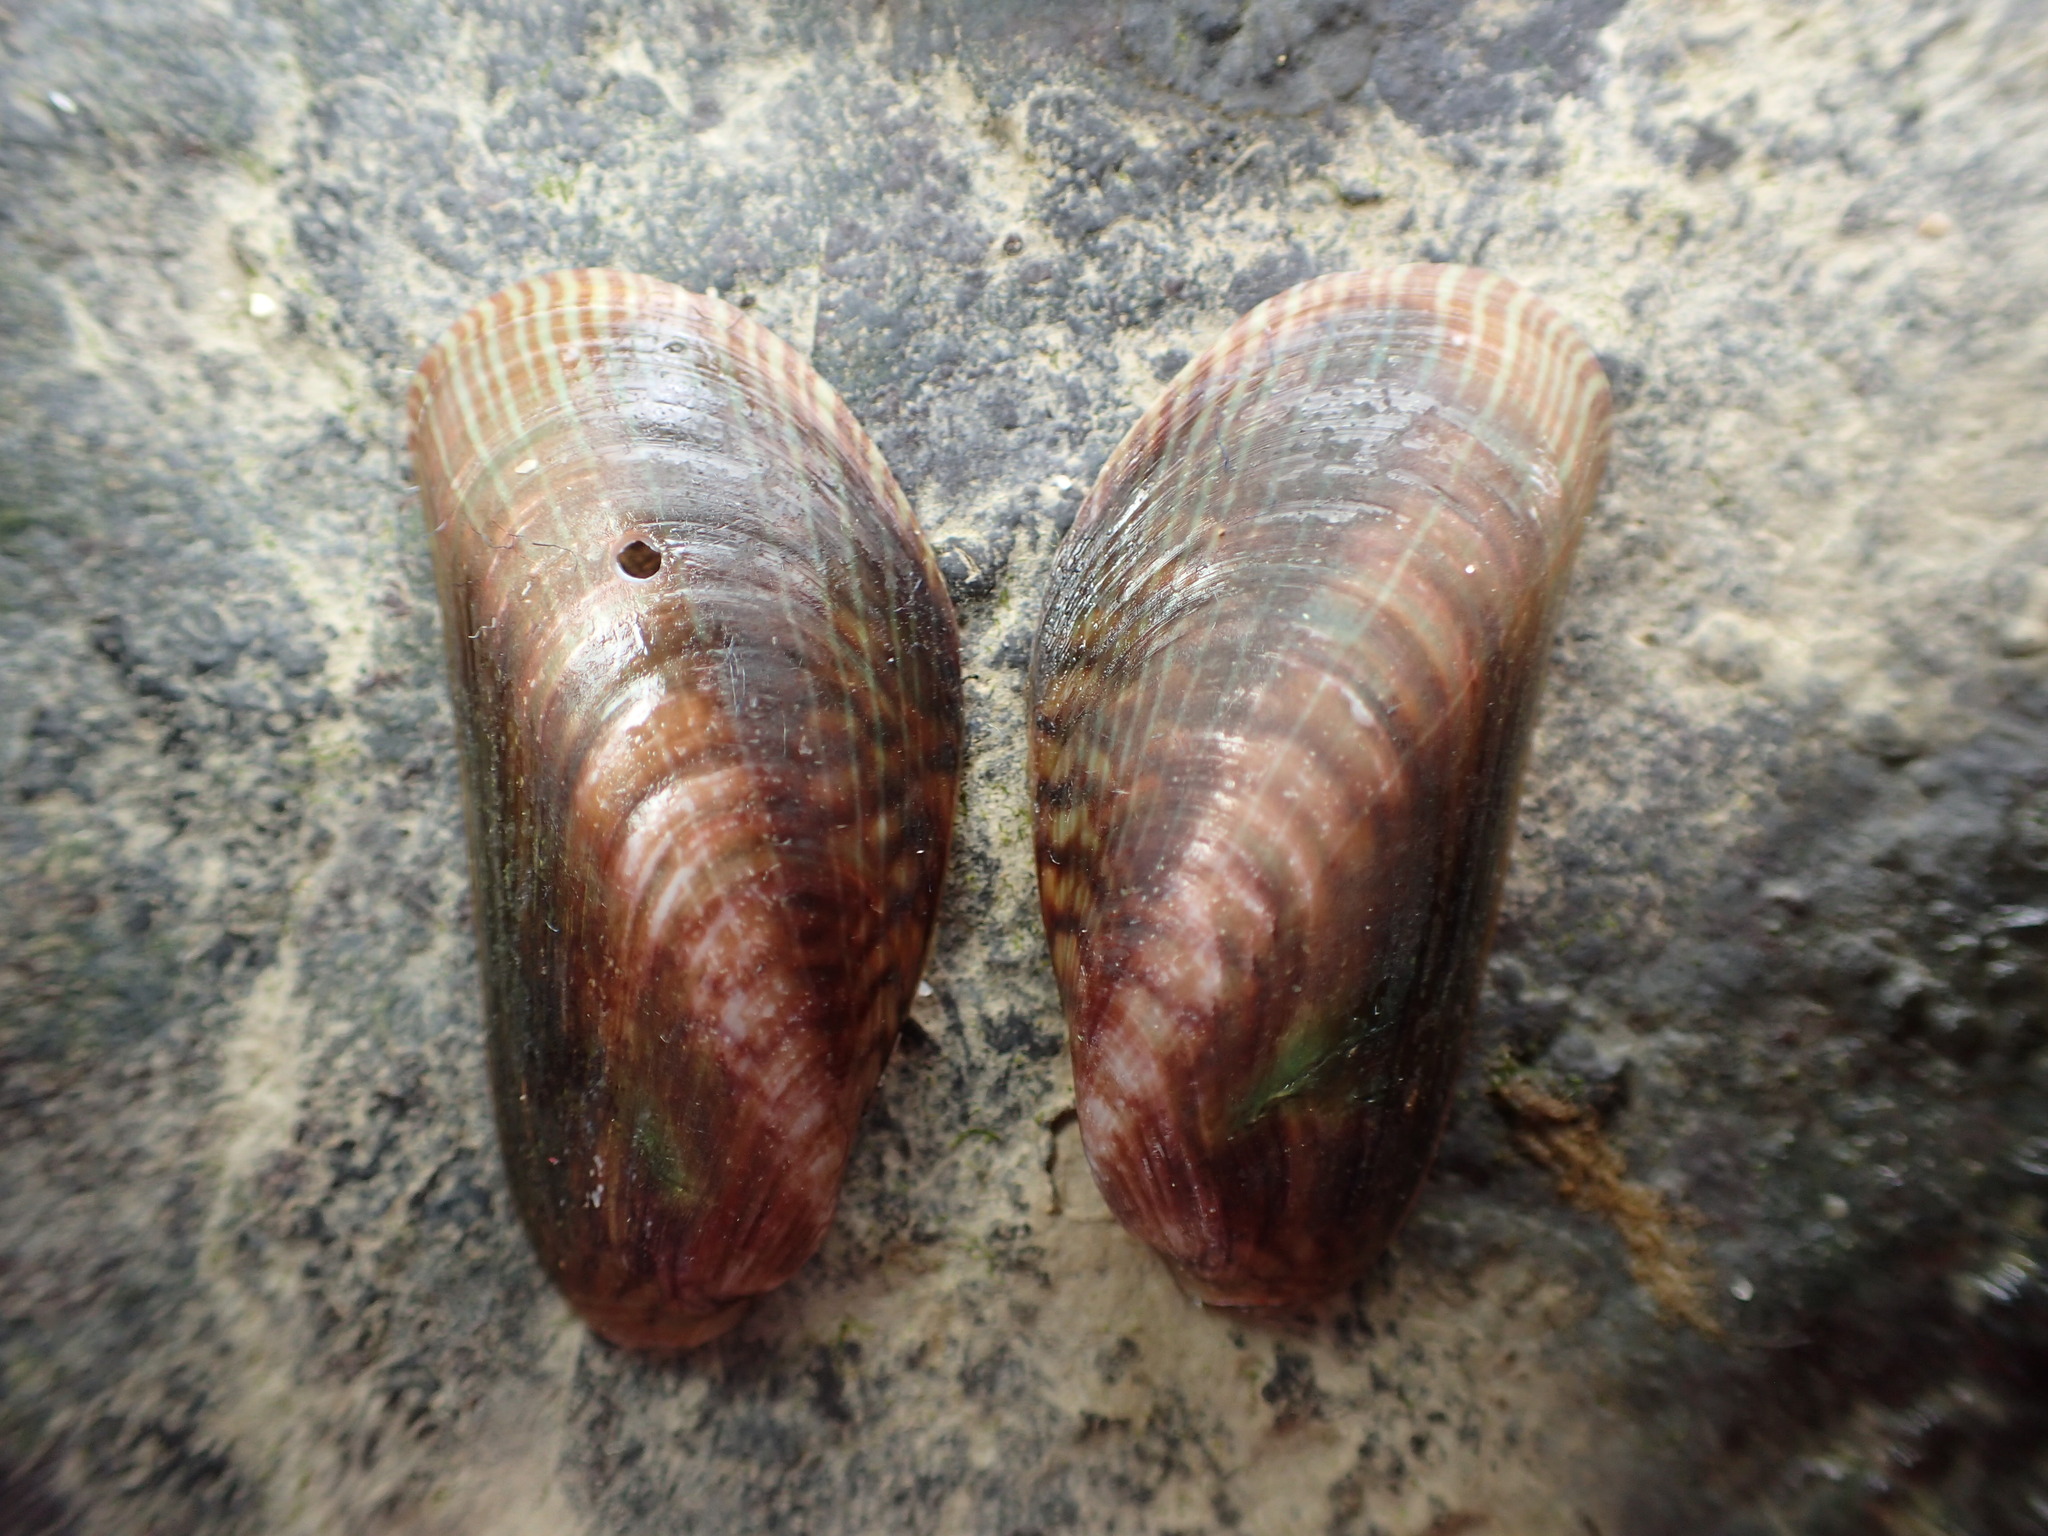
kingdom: Animalia
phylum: Mollusca
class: Bivalvia
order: Mytilida
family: Mytilidae
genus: Arcuatula
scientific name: Arcuatula senhousia
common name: Asian mussel
